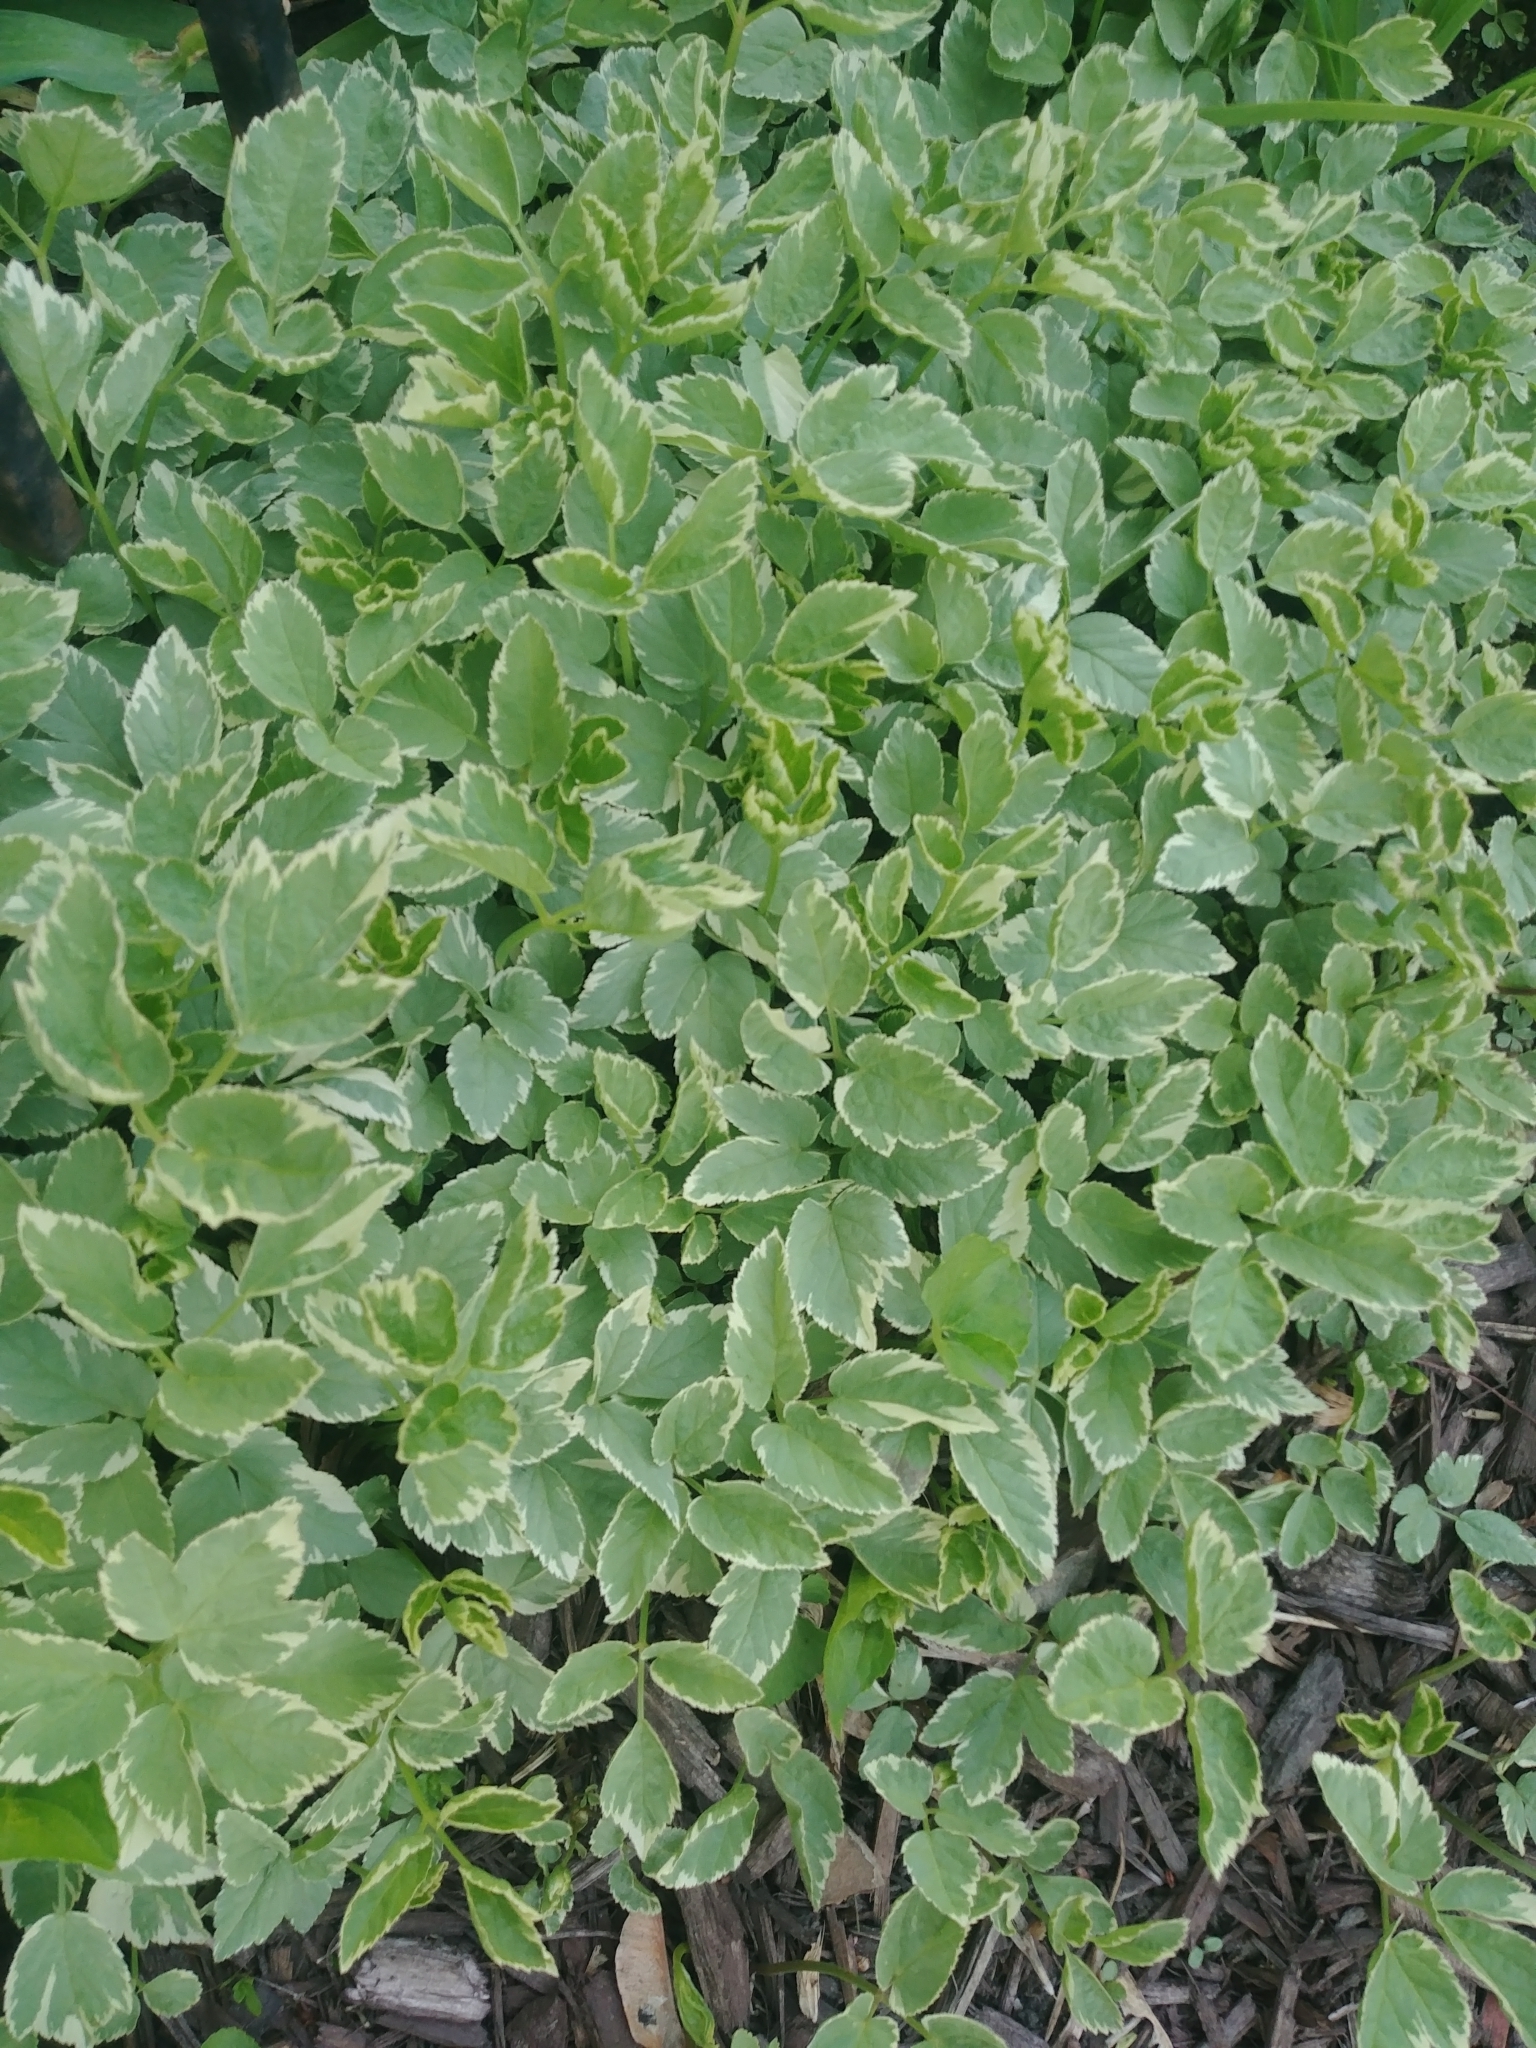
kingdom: Plantae
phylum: Tracheophyta
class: Magnoliopsida
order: Apiales
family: Apiaceae
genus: Aegopodium
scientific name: Aegopodium podagraria
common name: Ground-elder
